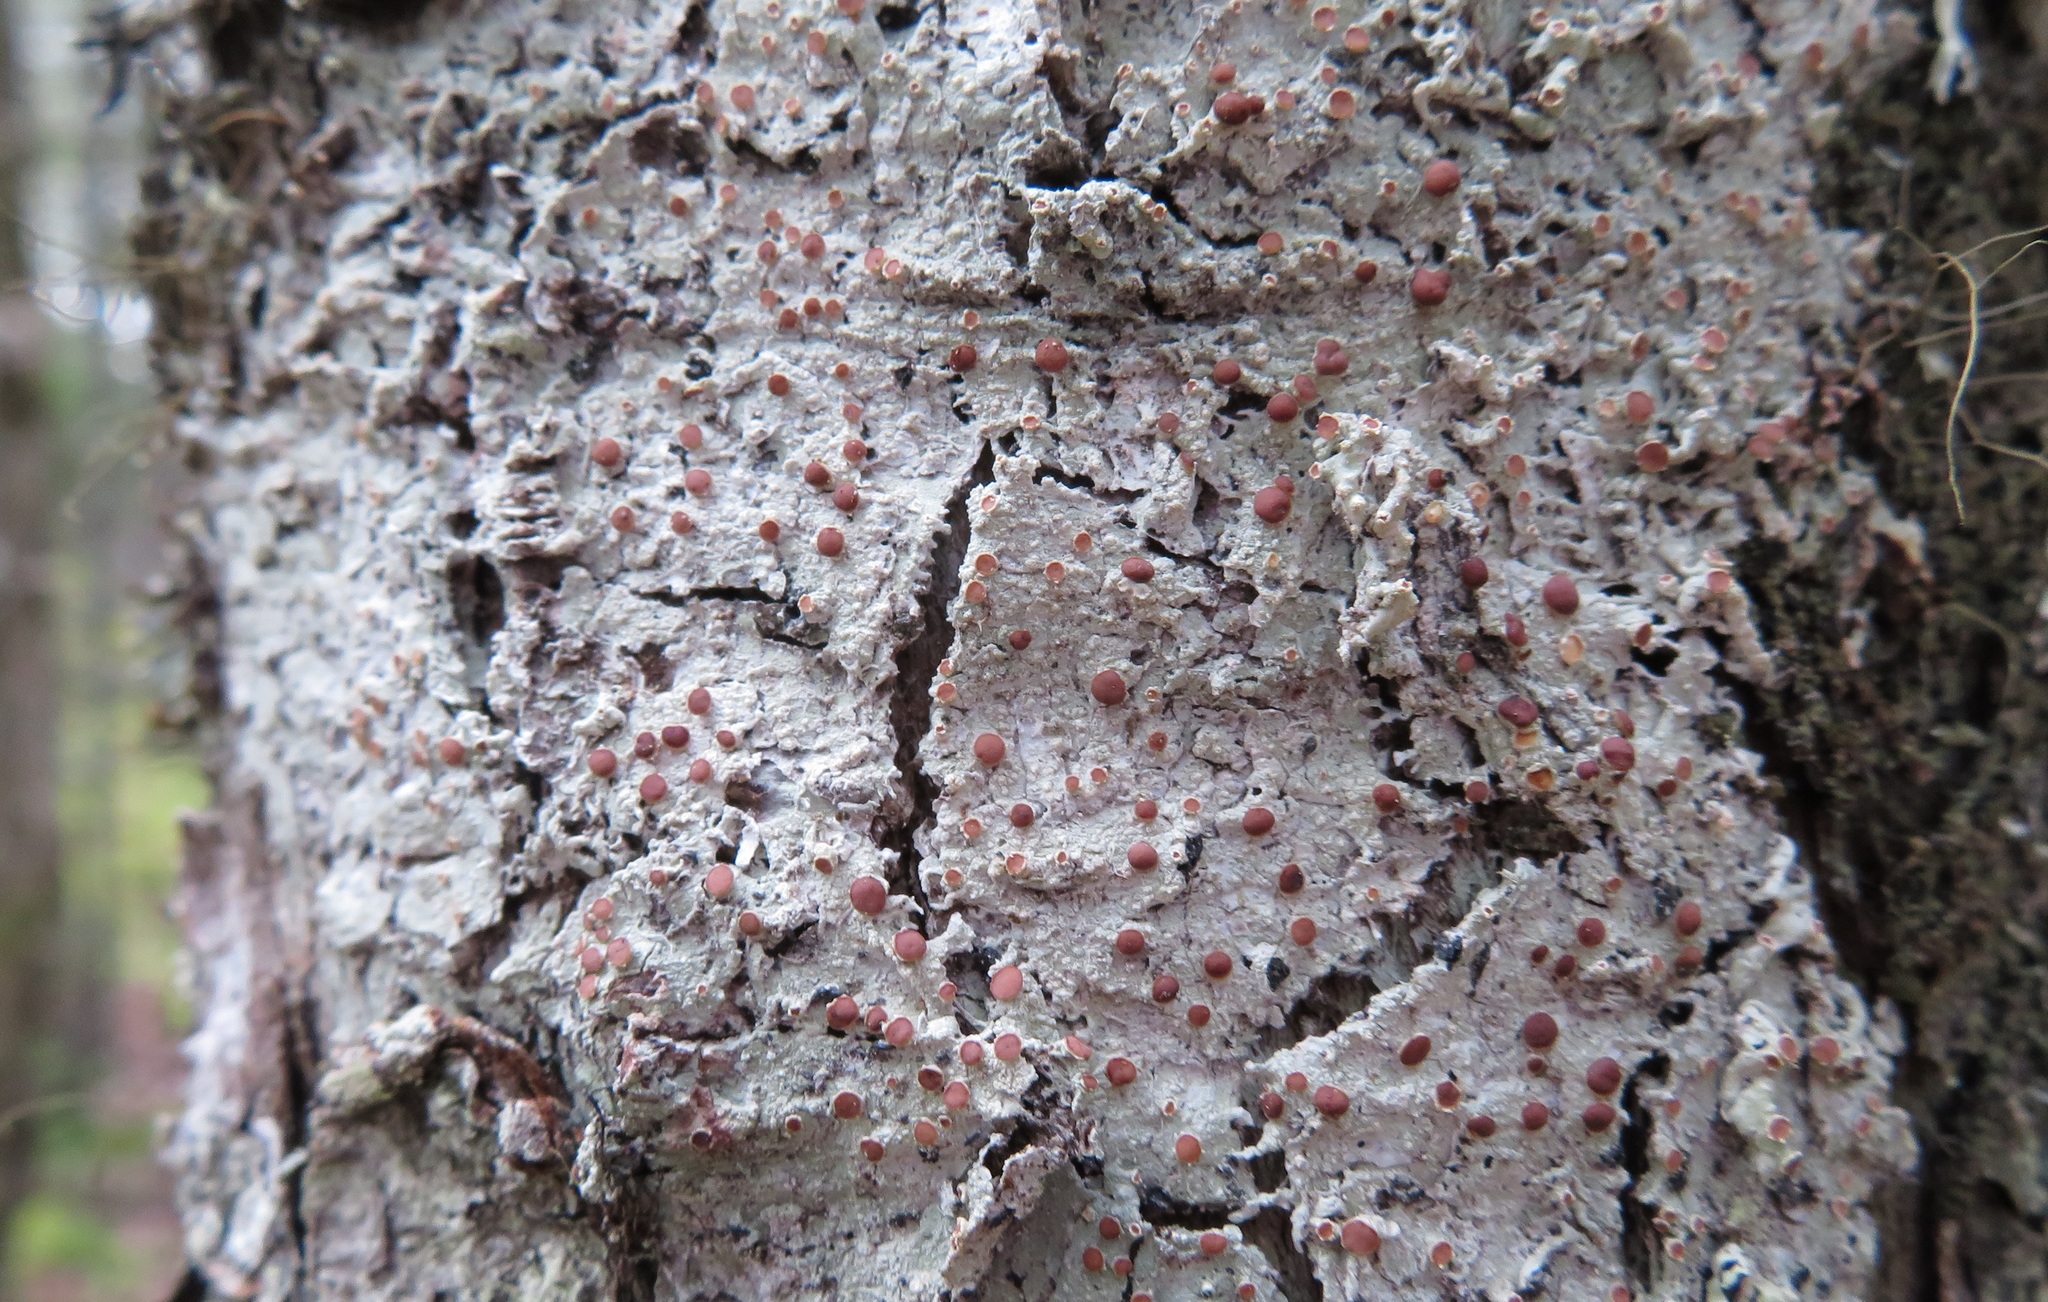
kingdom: Fungi
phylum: Ascomycota
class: Lecanoromycetes
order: Lecanorales
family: Sarrameanaceae
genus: Loxospora
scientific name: Loxospora ochrophaea
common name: Eastern ragged-rim lichen
